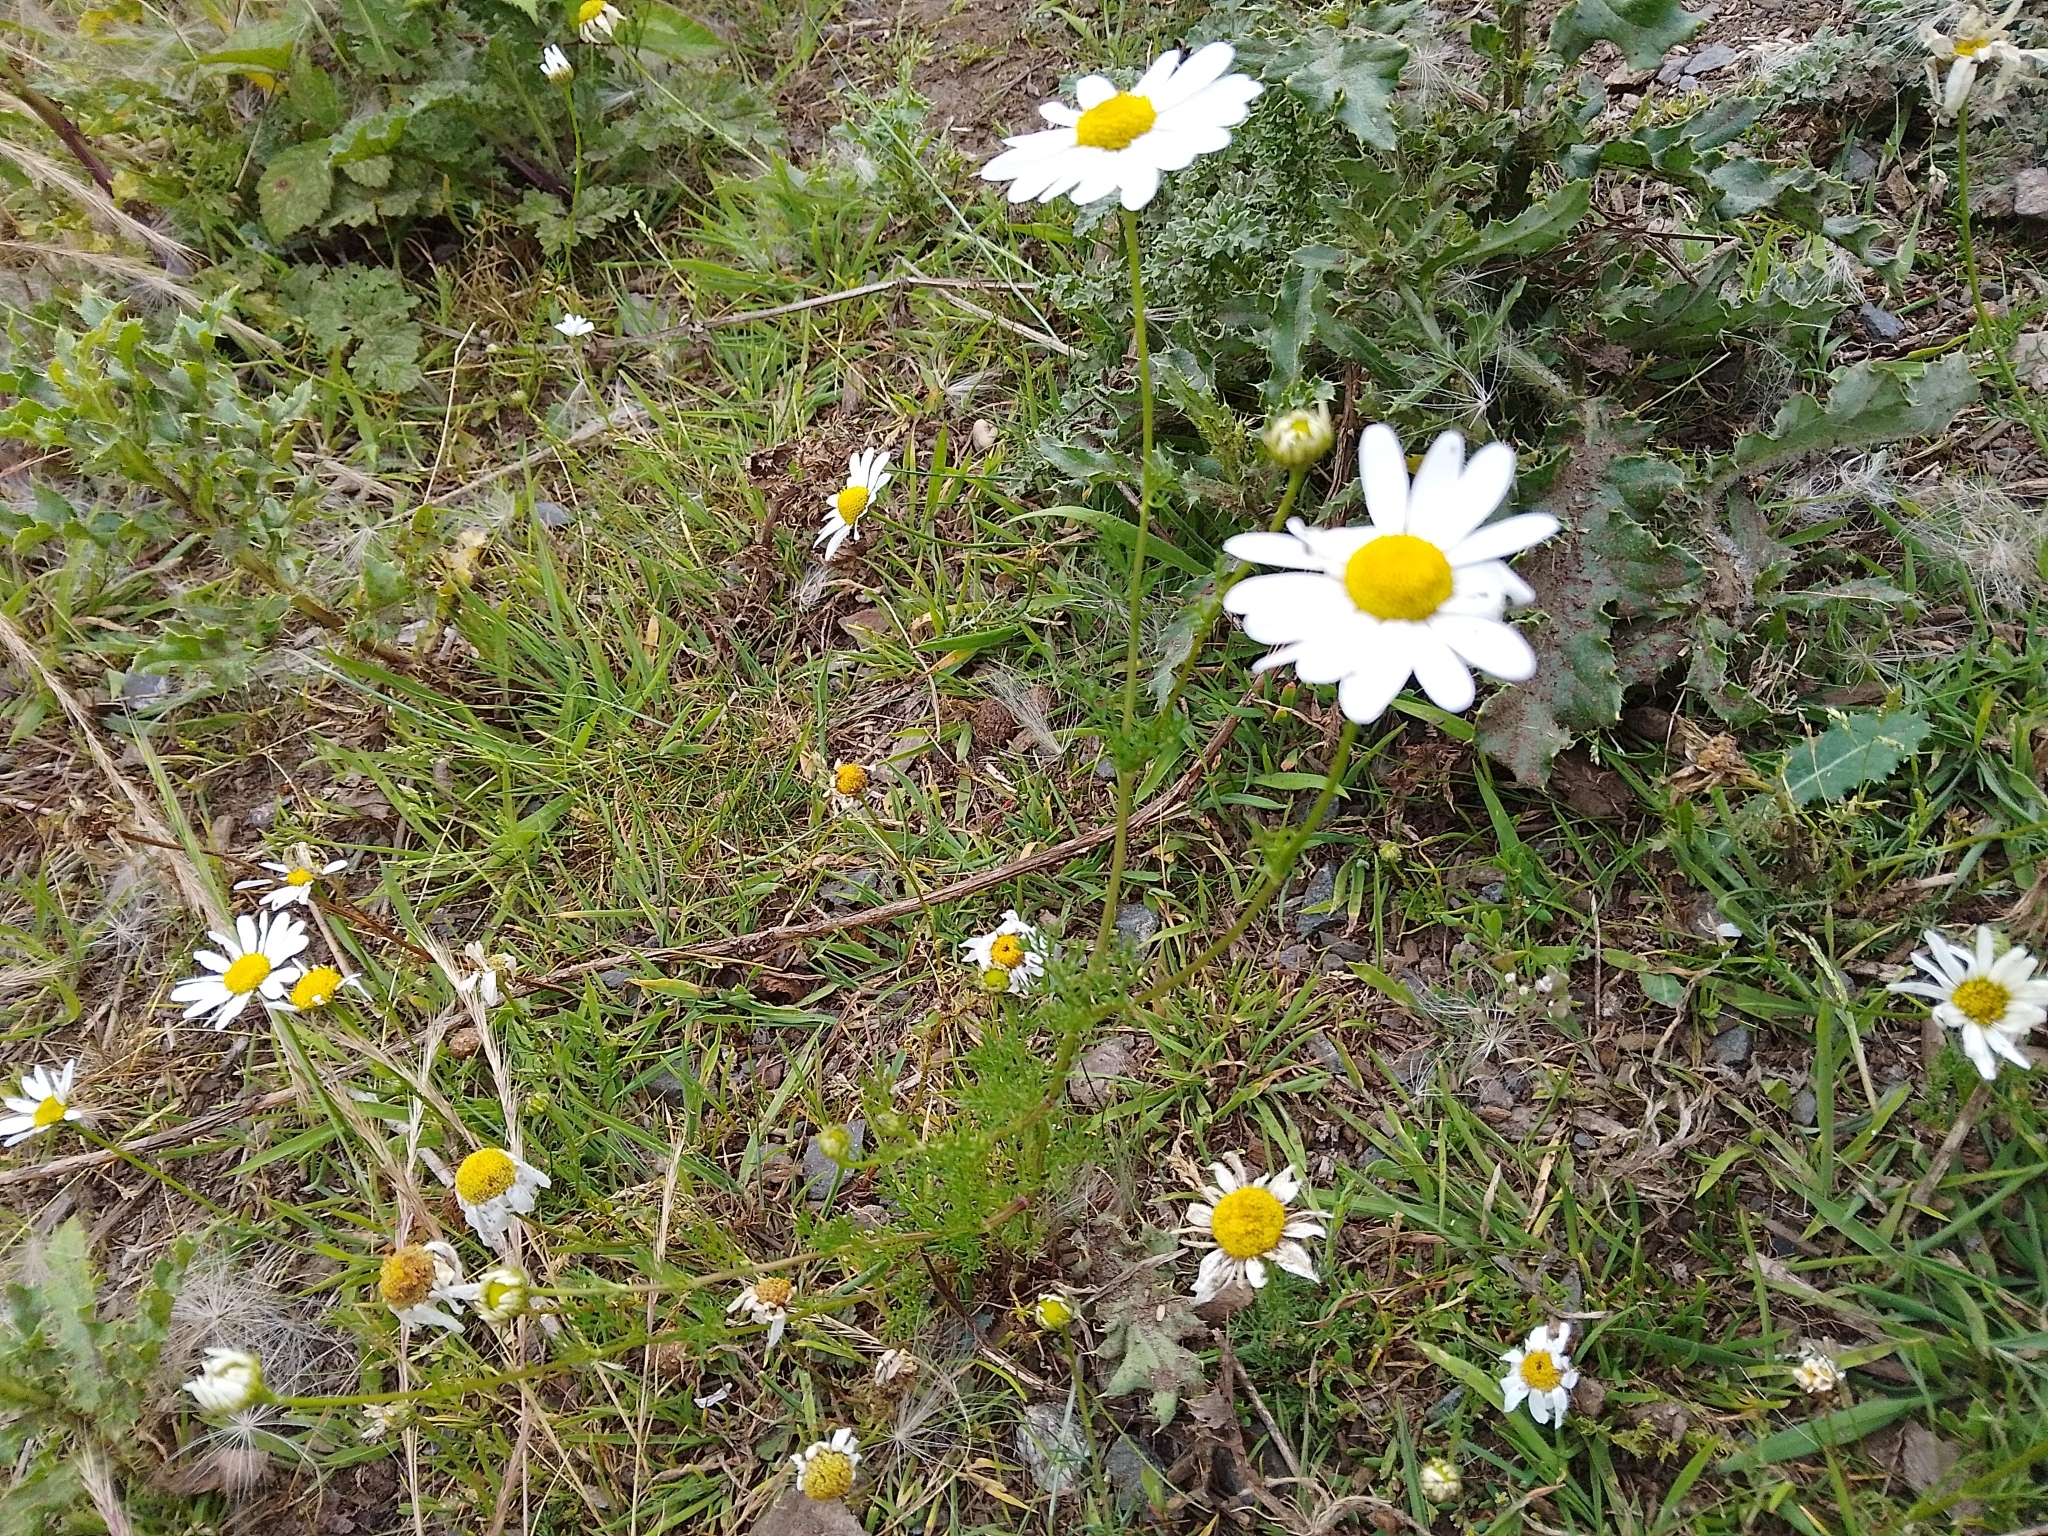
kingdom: Plantae
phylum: Tracheophyta
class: Magnoliopsida
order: Asterales
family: Asteraceae
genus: Tripleurospermum
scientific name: Tripleurospermum inodorum
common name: Scentless mayweed
